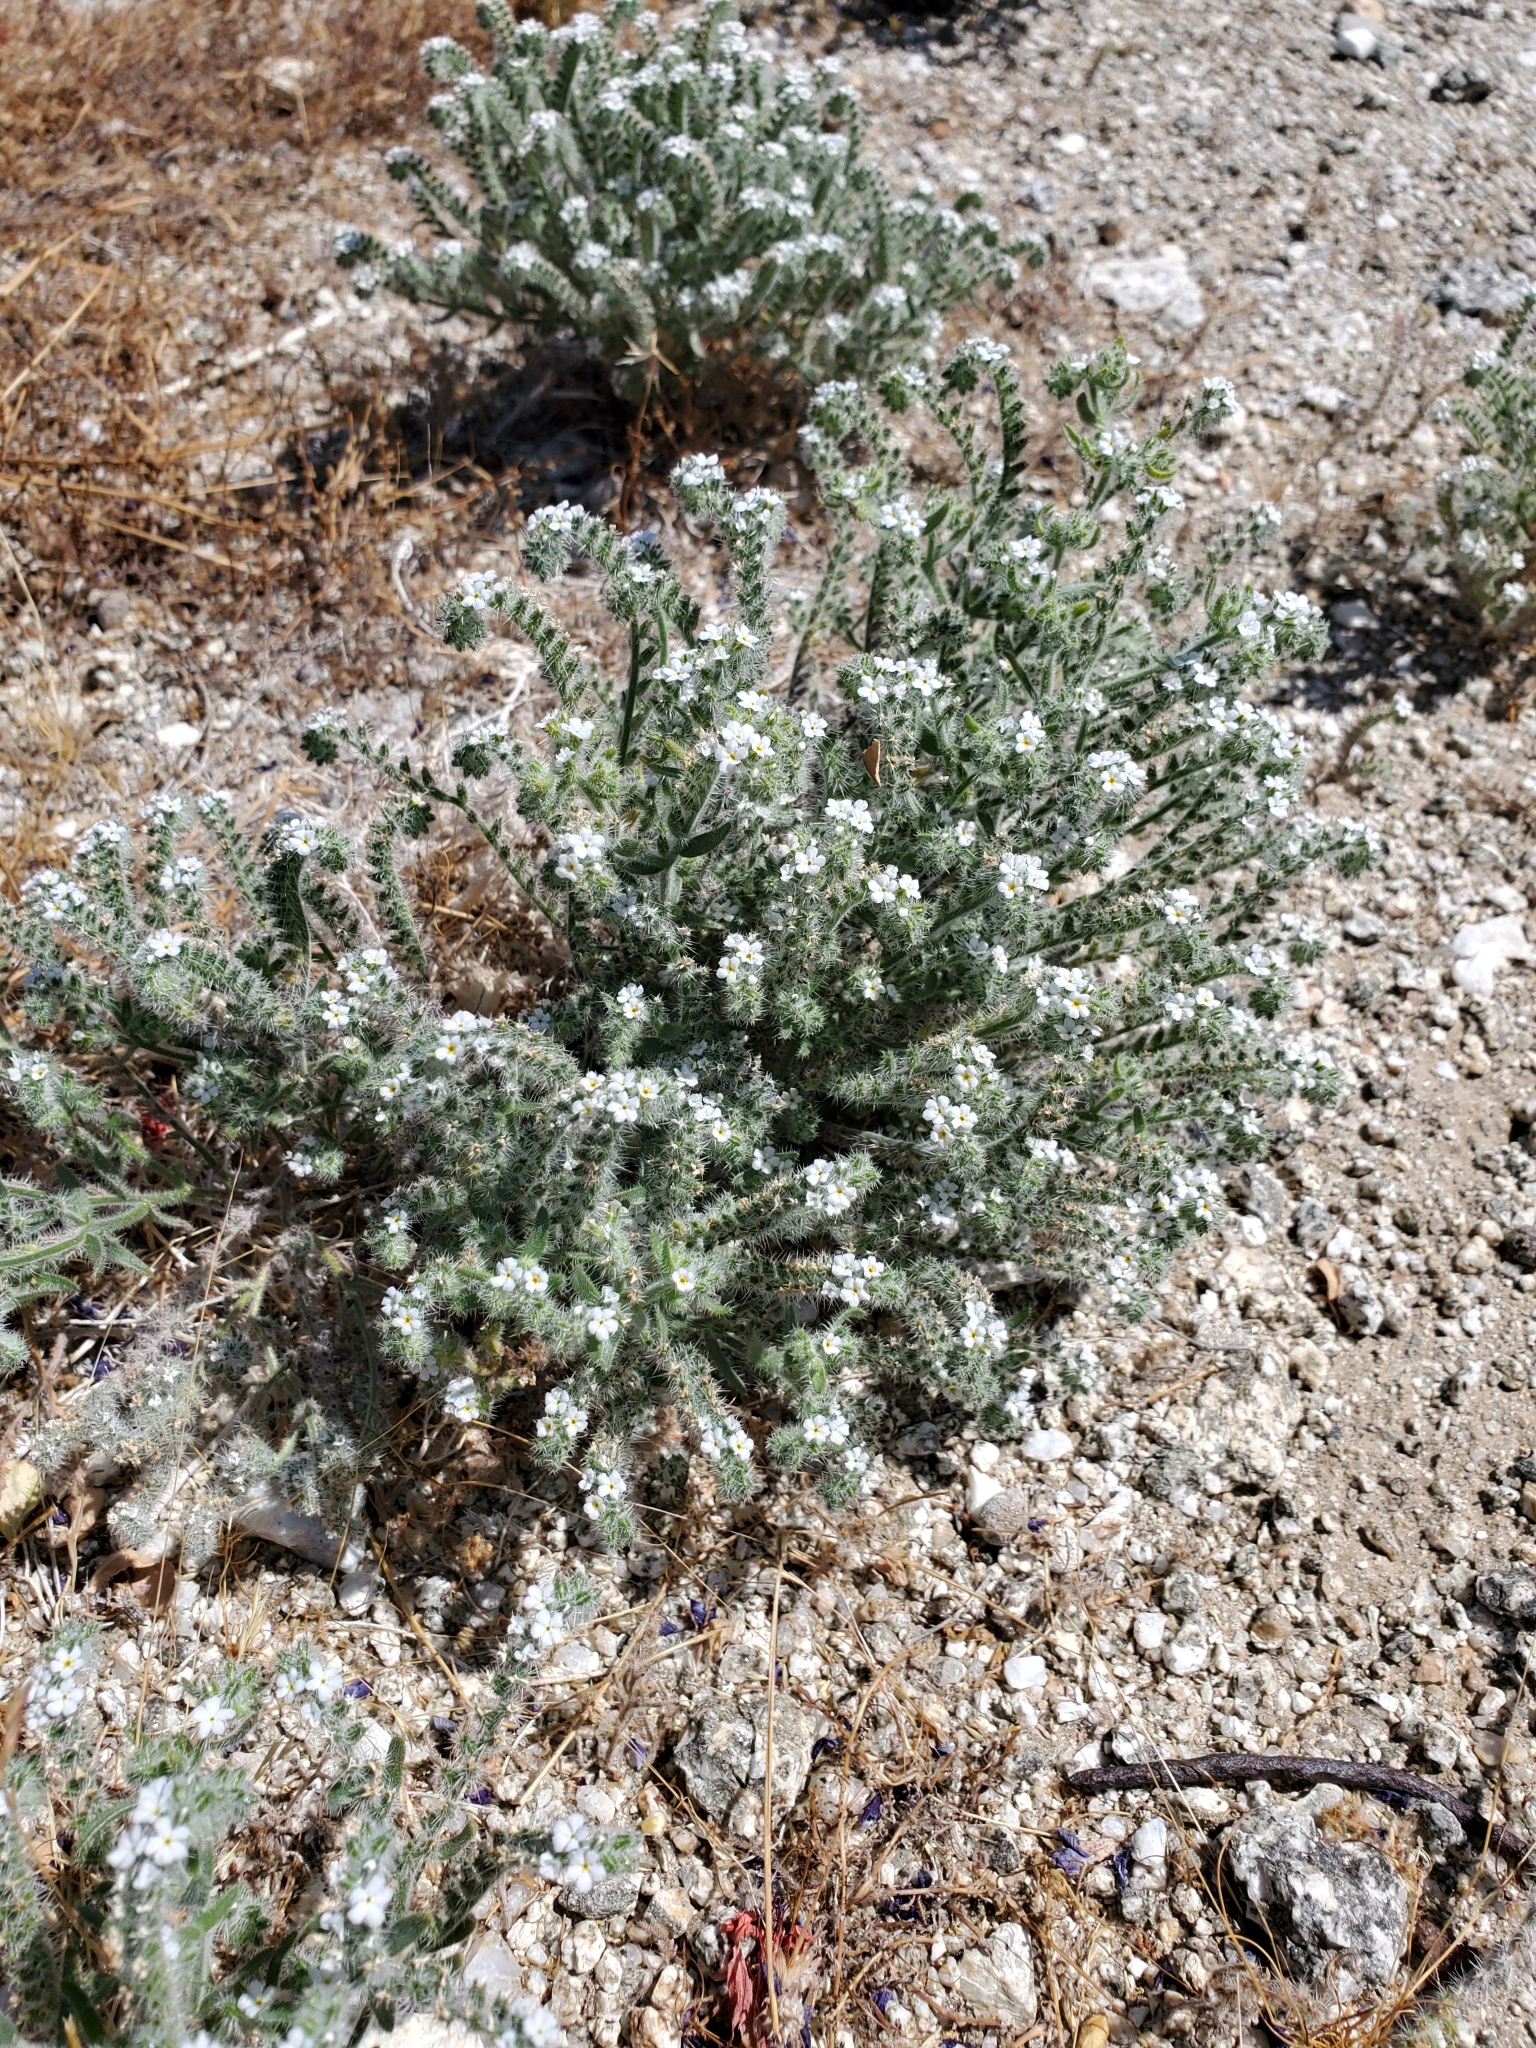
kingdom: Plantae
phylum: Tracheophyta
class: Magnoliopsida
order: Boraginales
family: Boraginaceae
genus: Johnstonella
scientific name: Johnstonella angustifolia
